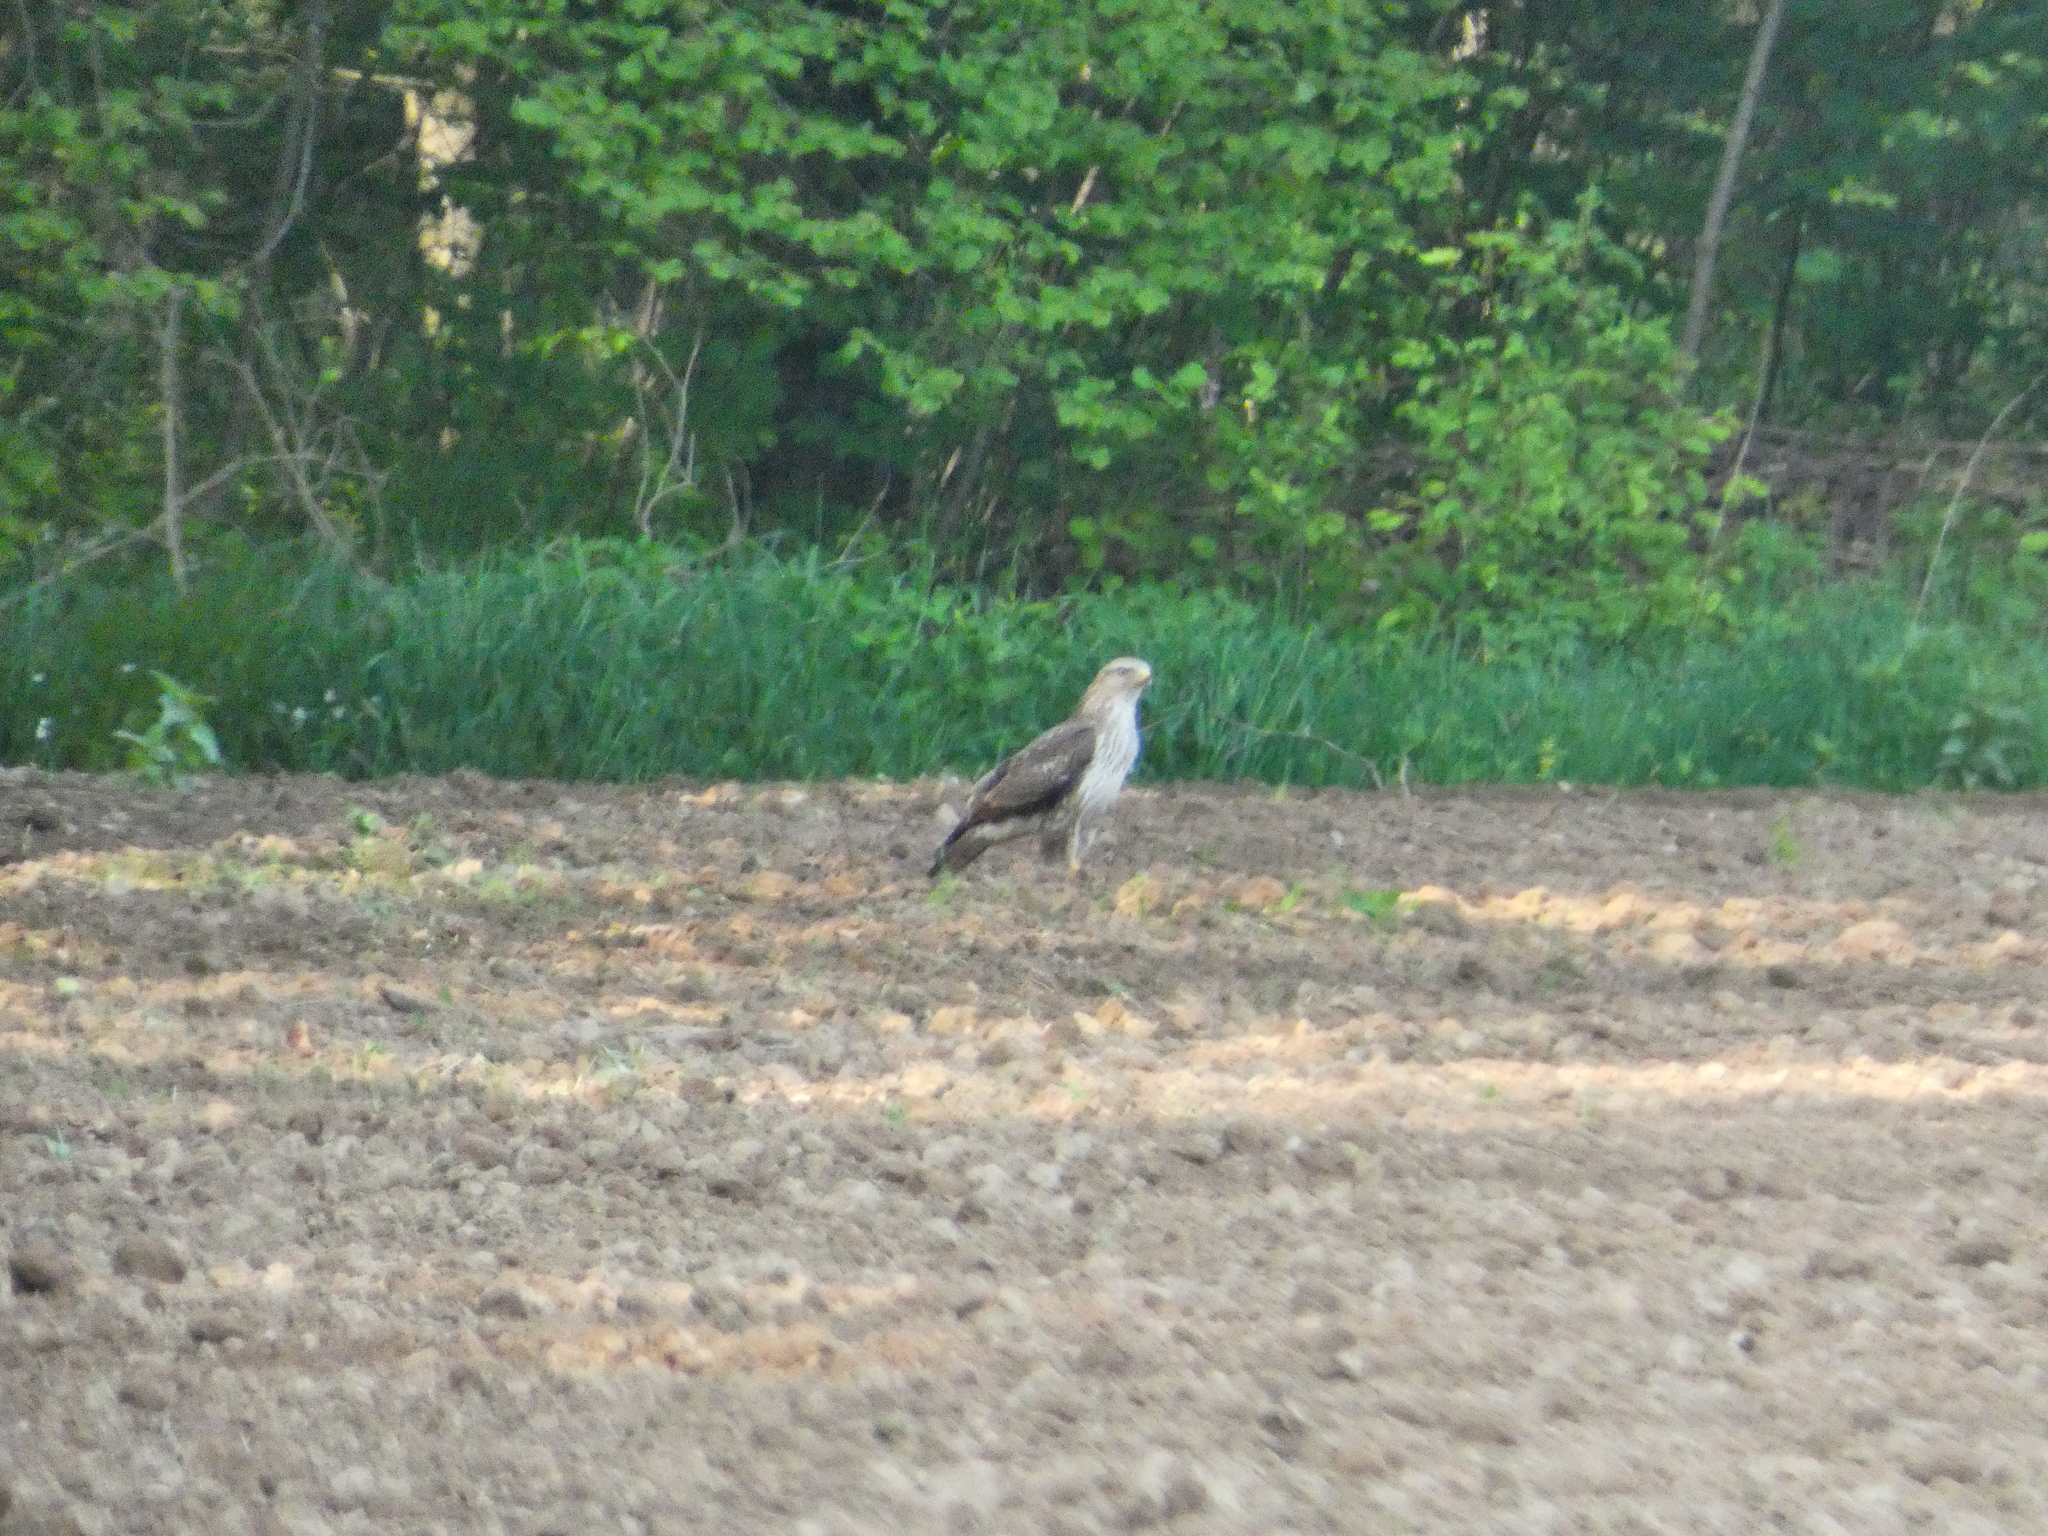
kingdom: Animalia
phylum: Chordata
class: Aves
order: Accipitriformes
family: Accipitridae
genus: Buteo
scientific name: Buteo buteo
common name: Common buzzard
